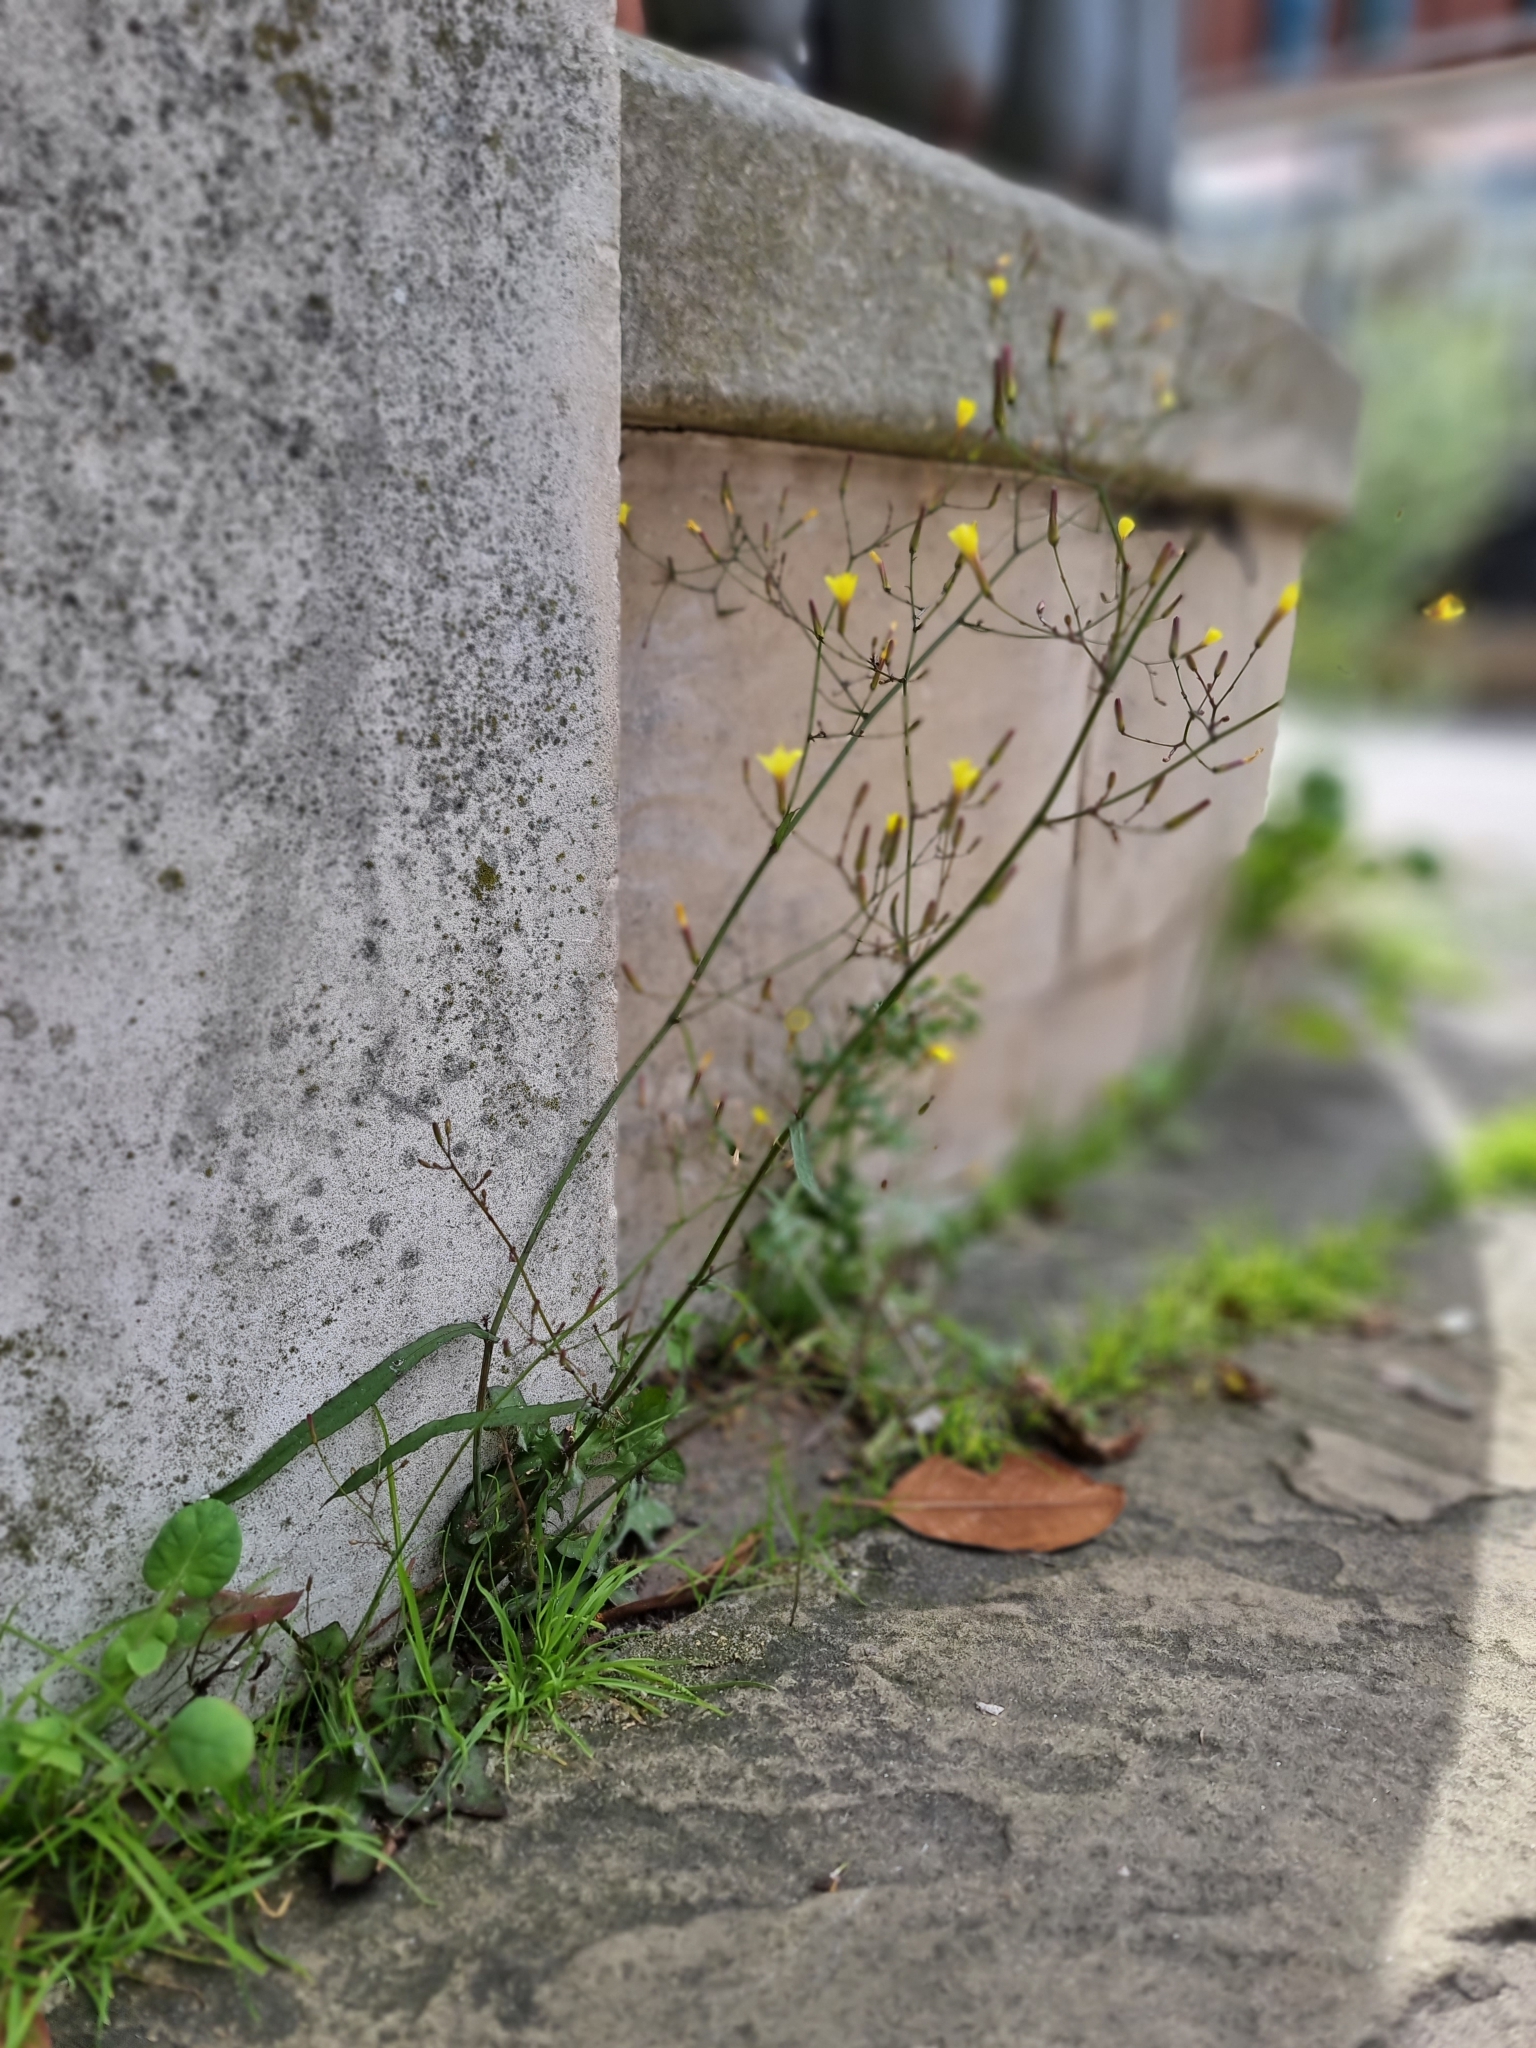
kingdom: Plantae
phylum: Tracheophyta
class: Magnoliopsida
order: Asterales
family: Asteraceae
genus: Mycelis
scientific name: Mycelis muralis
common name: Wall lettuce
